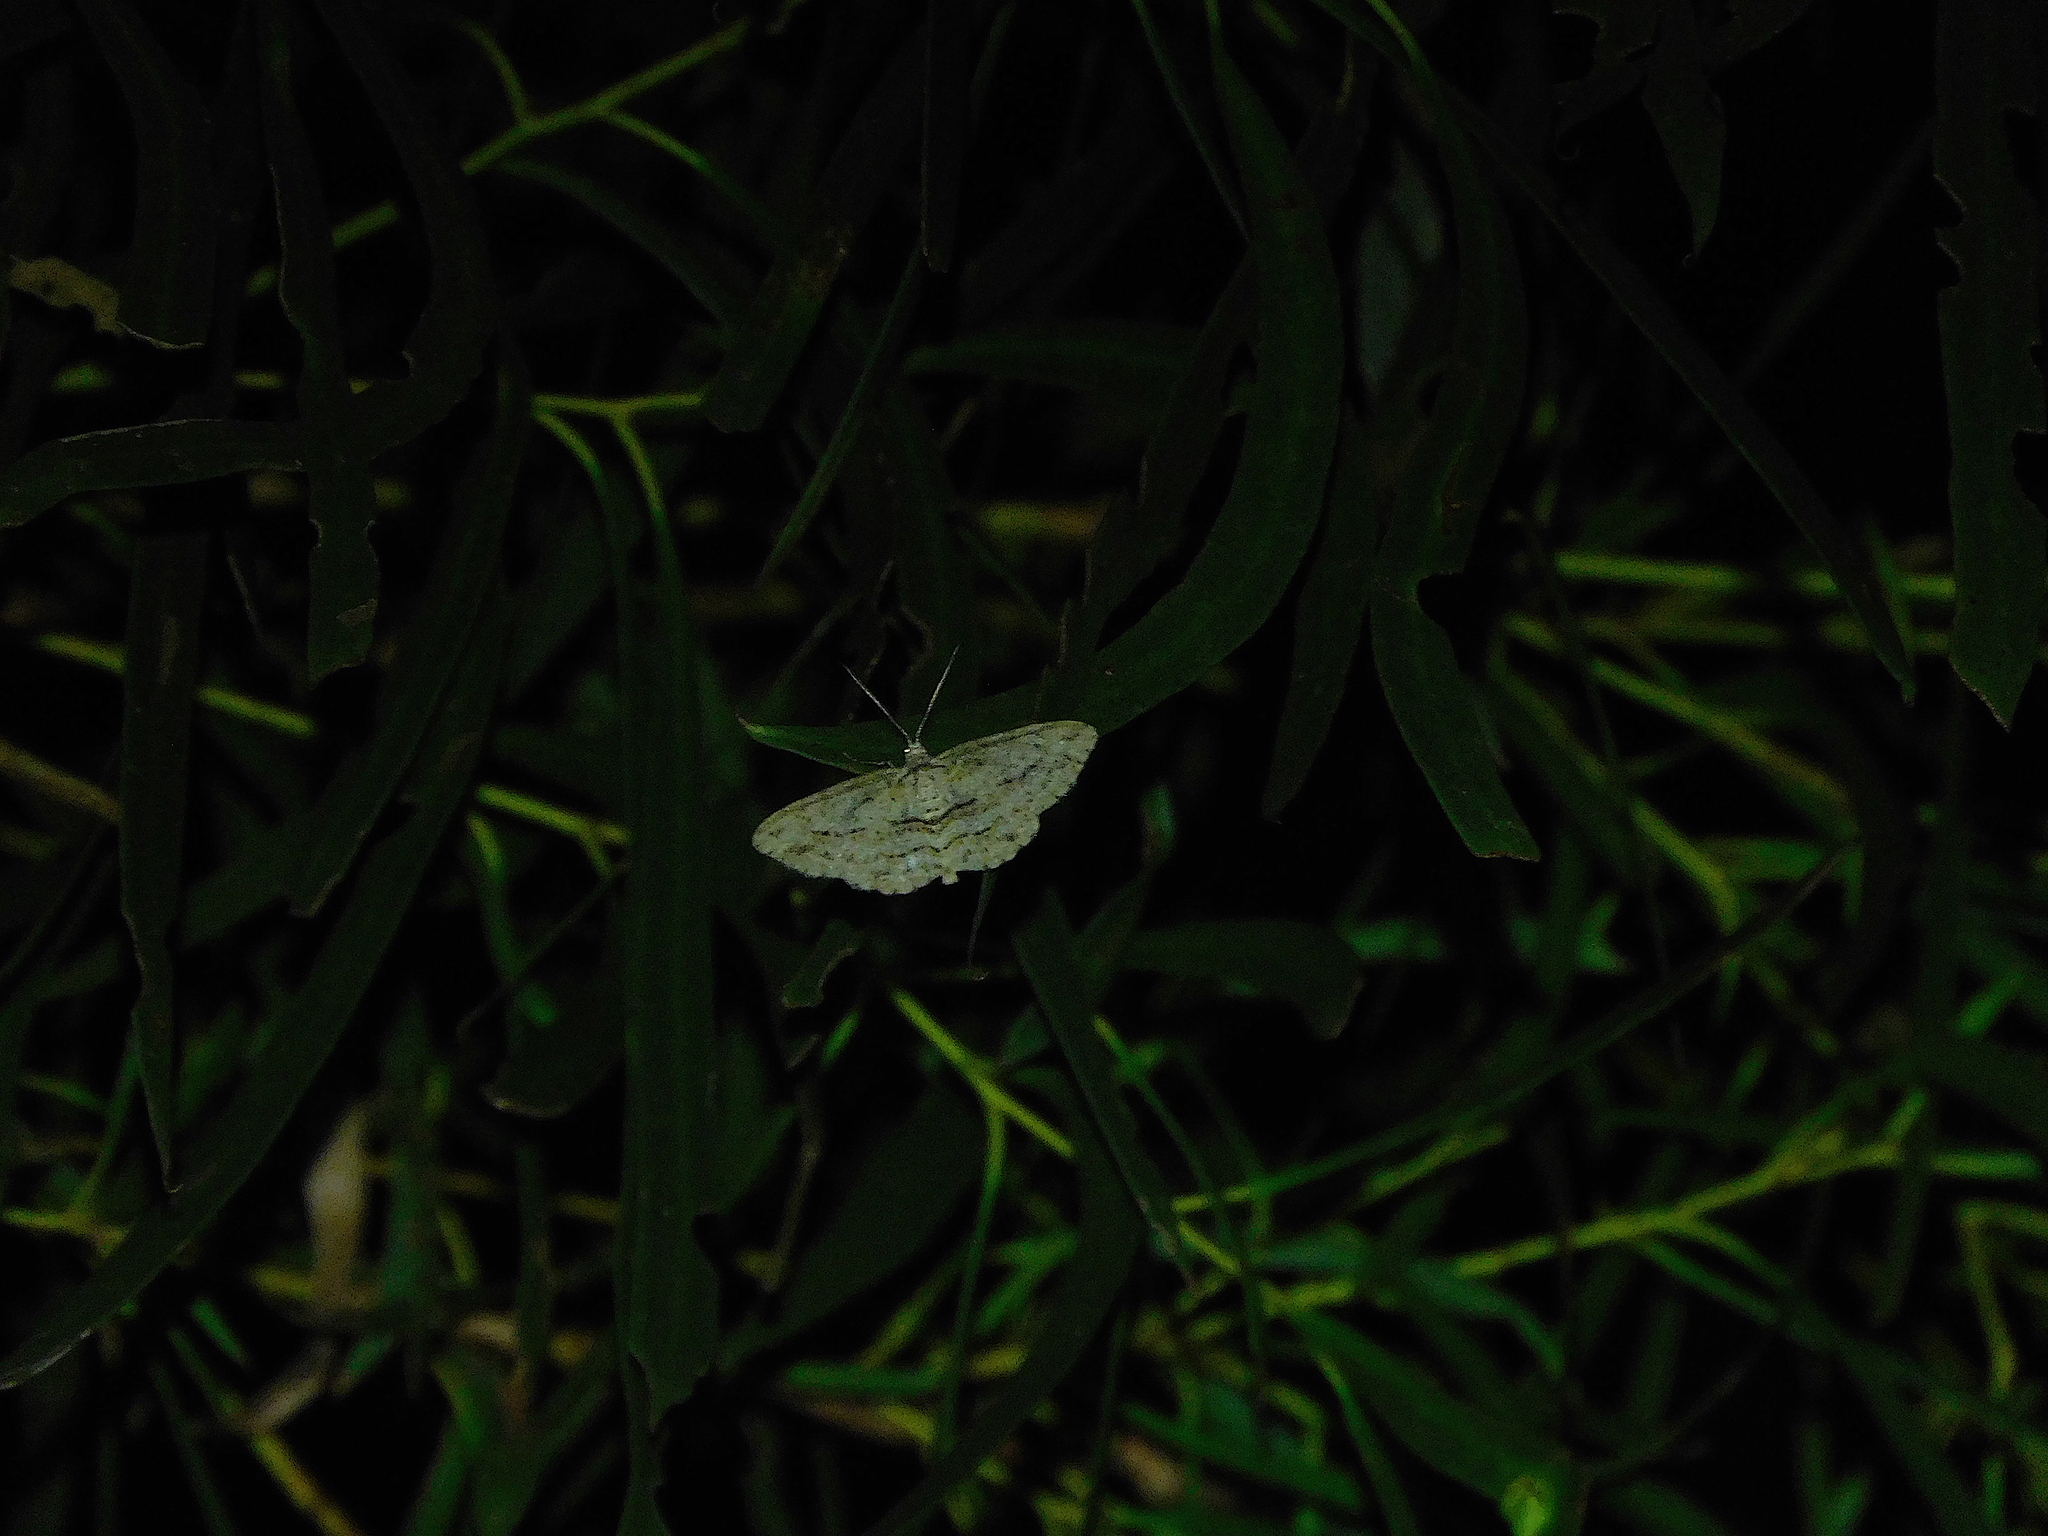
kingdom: Animalia
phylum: Arthropoda
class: Insecta
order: Lepidoptera
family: Geometridae
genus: Didymoctenia
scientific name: Didymoctenia exsuperata
